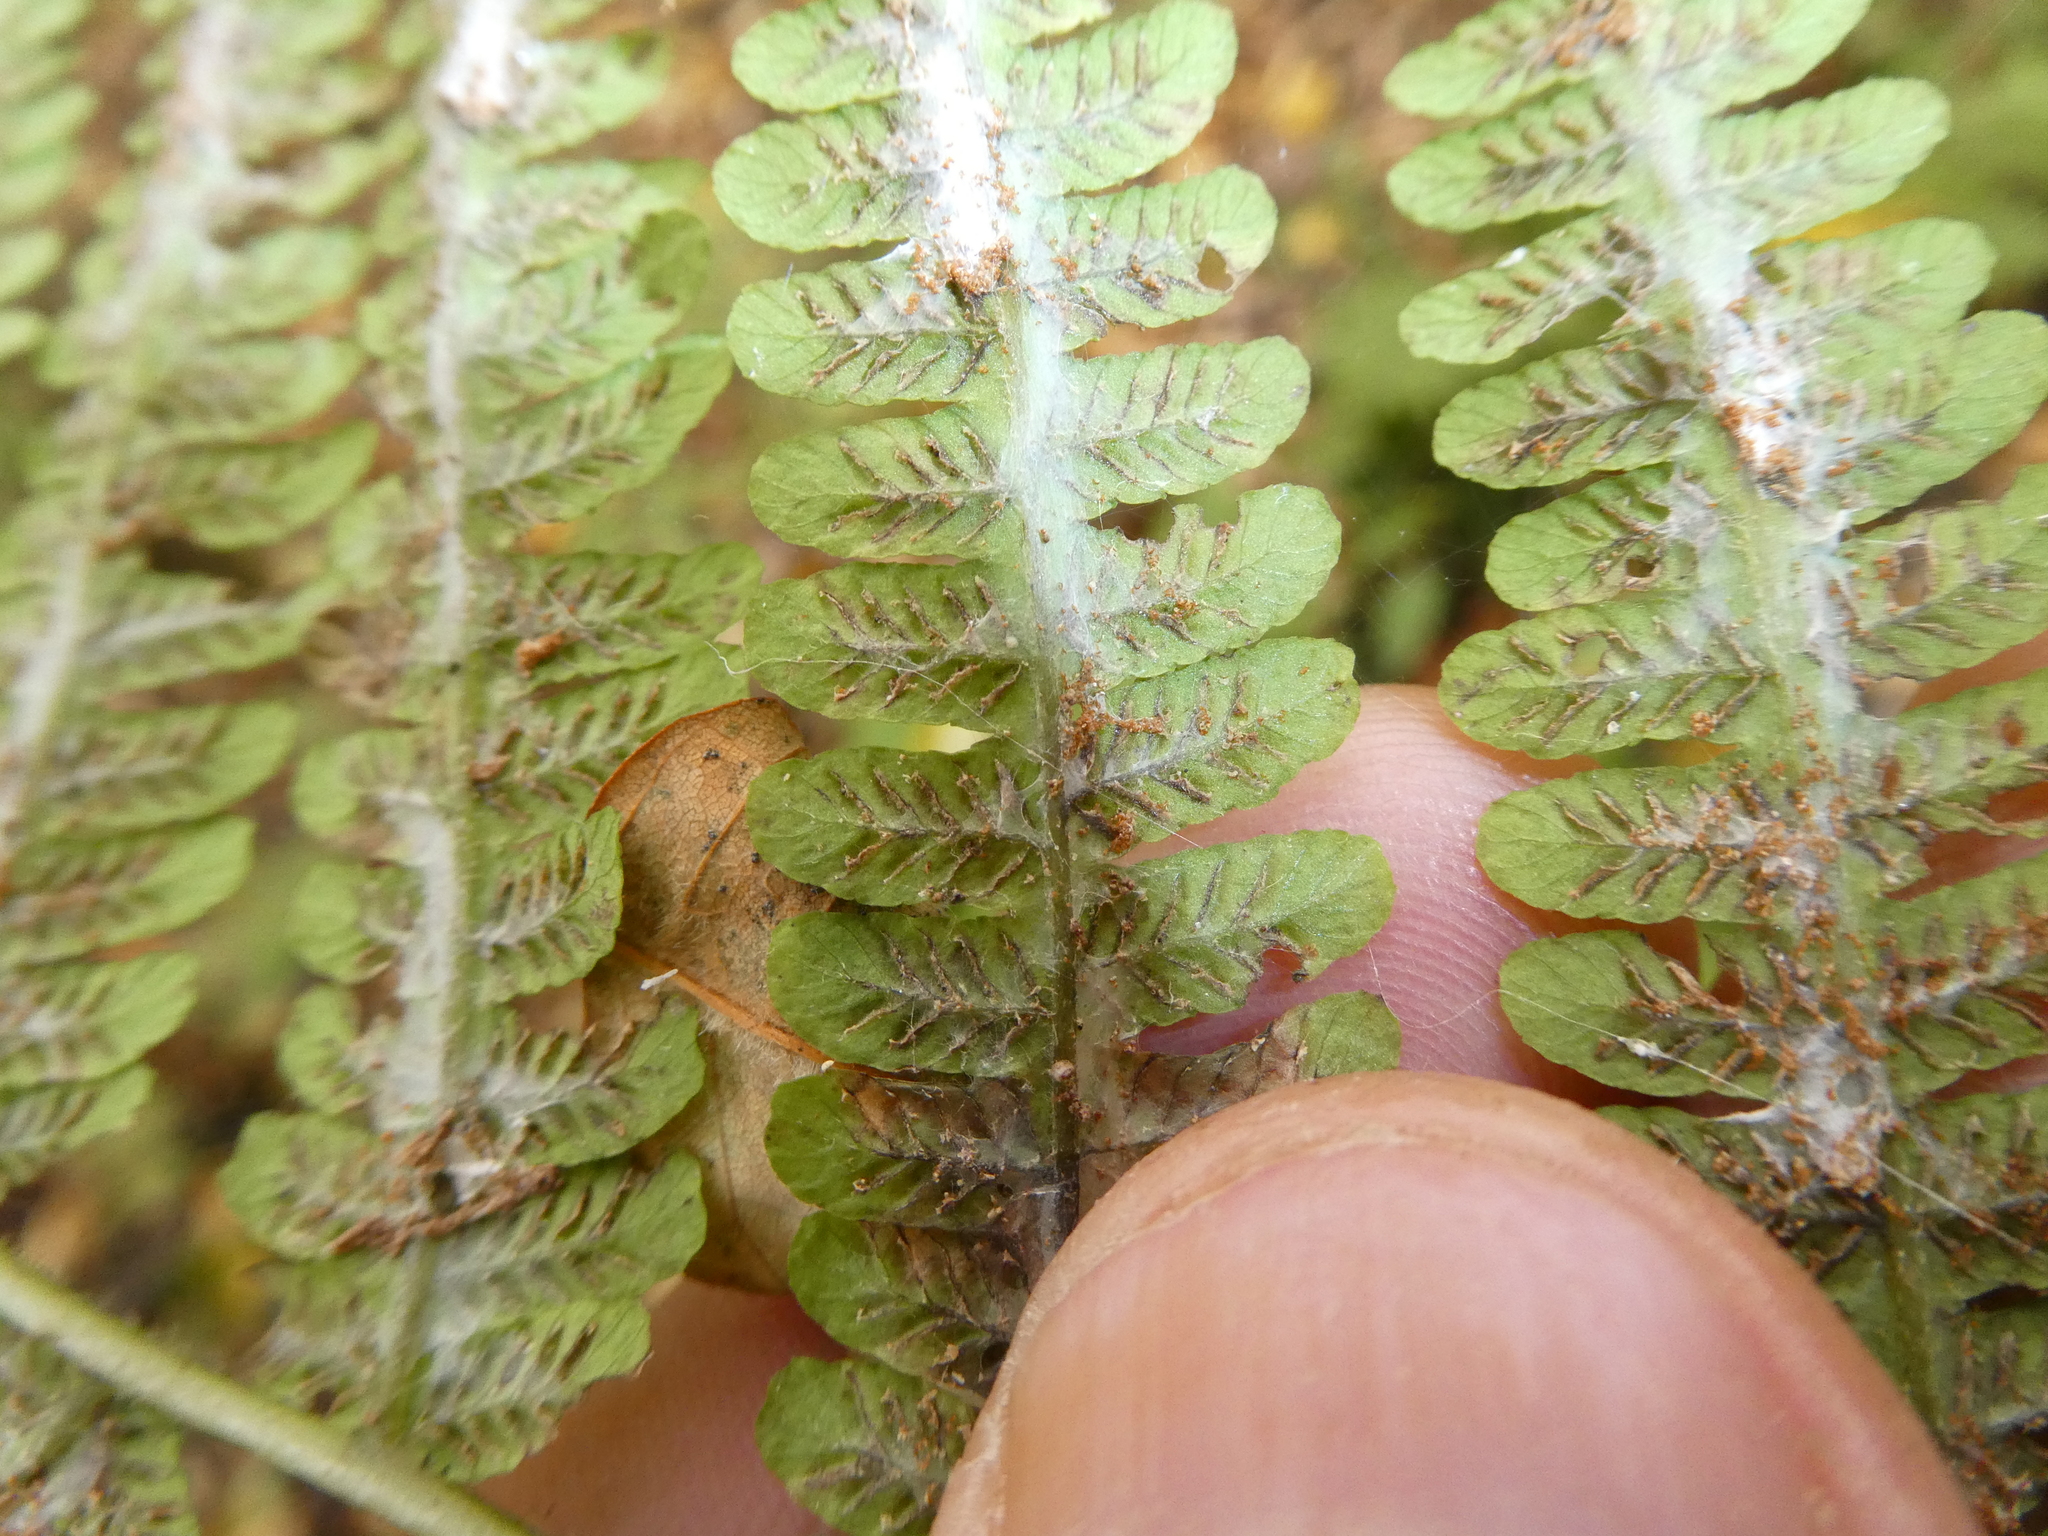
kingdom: Plantae
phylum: Tracheophyta
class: Polypodiopsida
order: Polypodiales
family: Athyriaceae
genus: Deparia
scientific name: Deparia acrostichoides
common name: Silver false spleenwort
